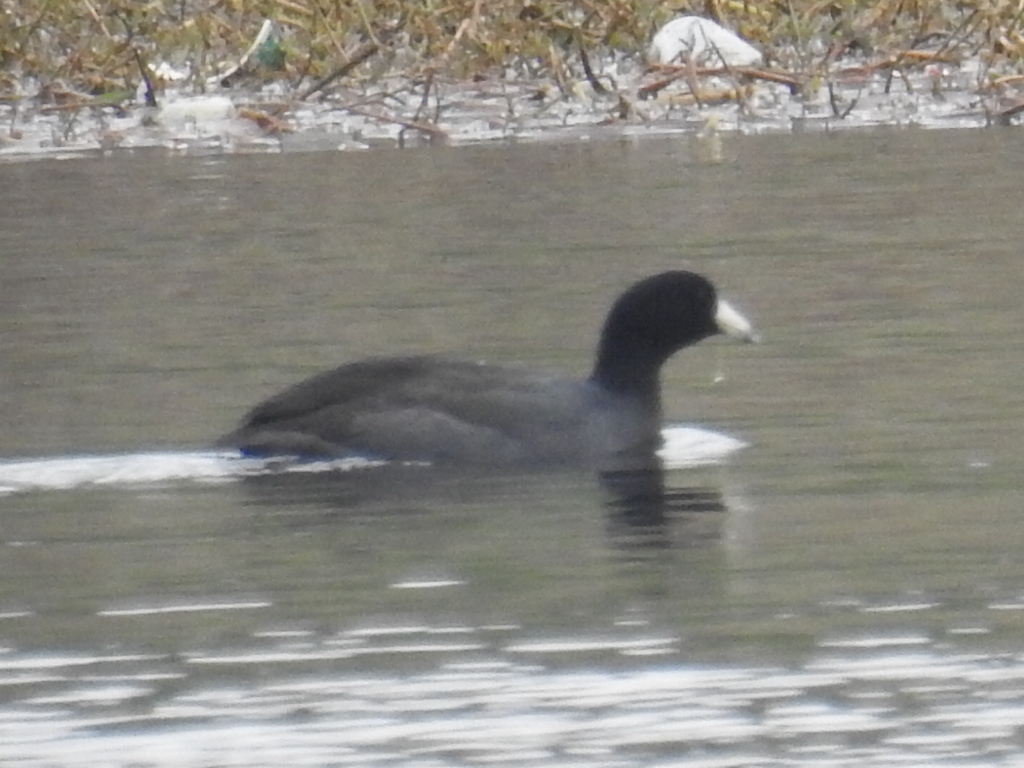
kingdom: Animalia
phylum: Chordata
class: Aves
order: Gruiformes
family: Rallidae
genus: Fulica
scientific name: Fulica americana
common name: American coot
